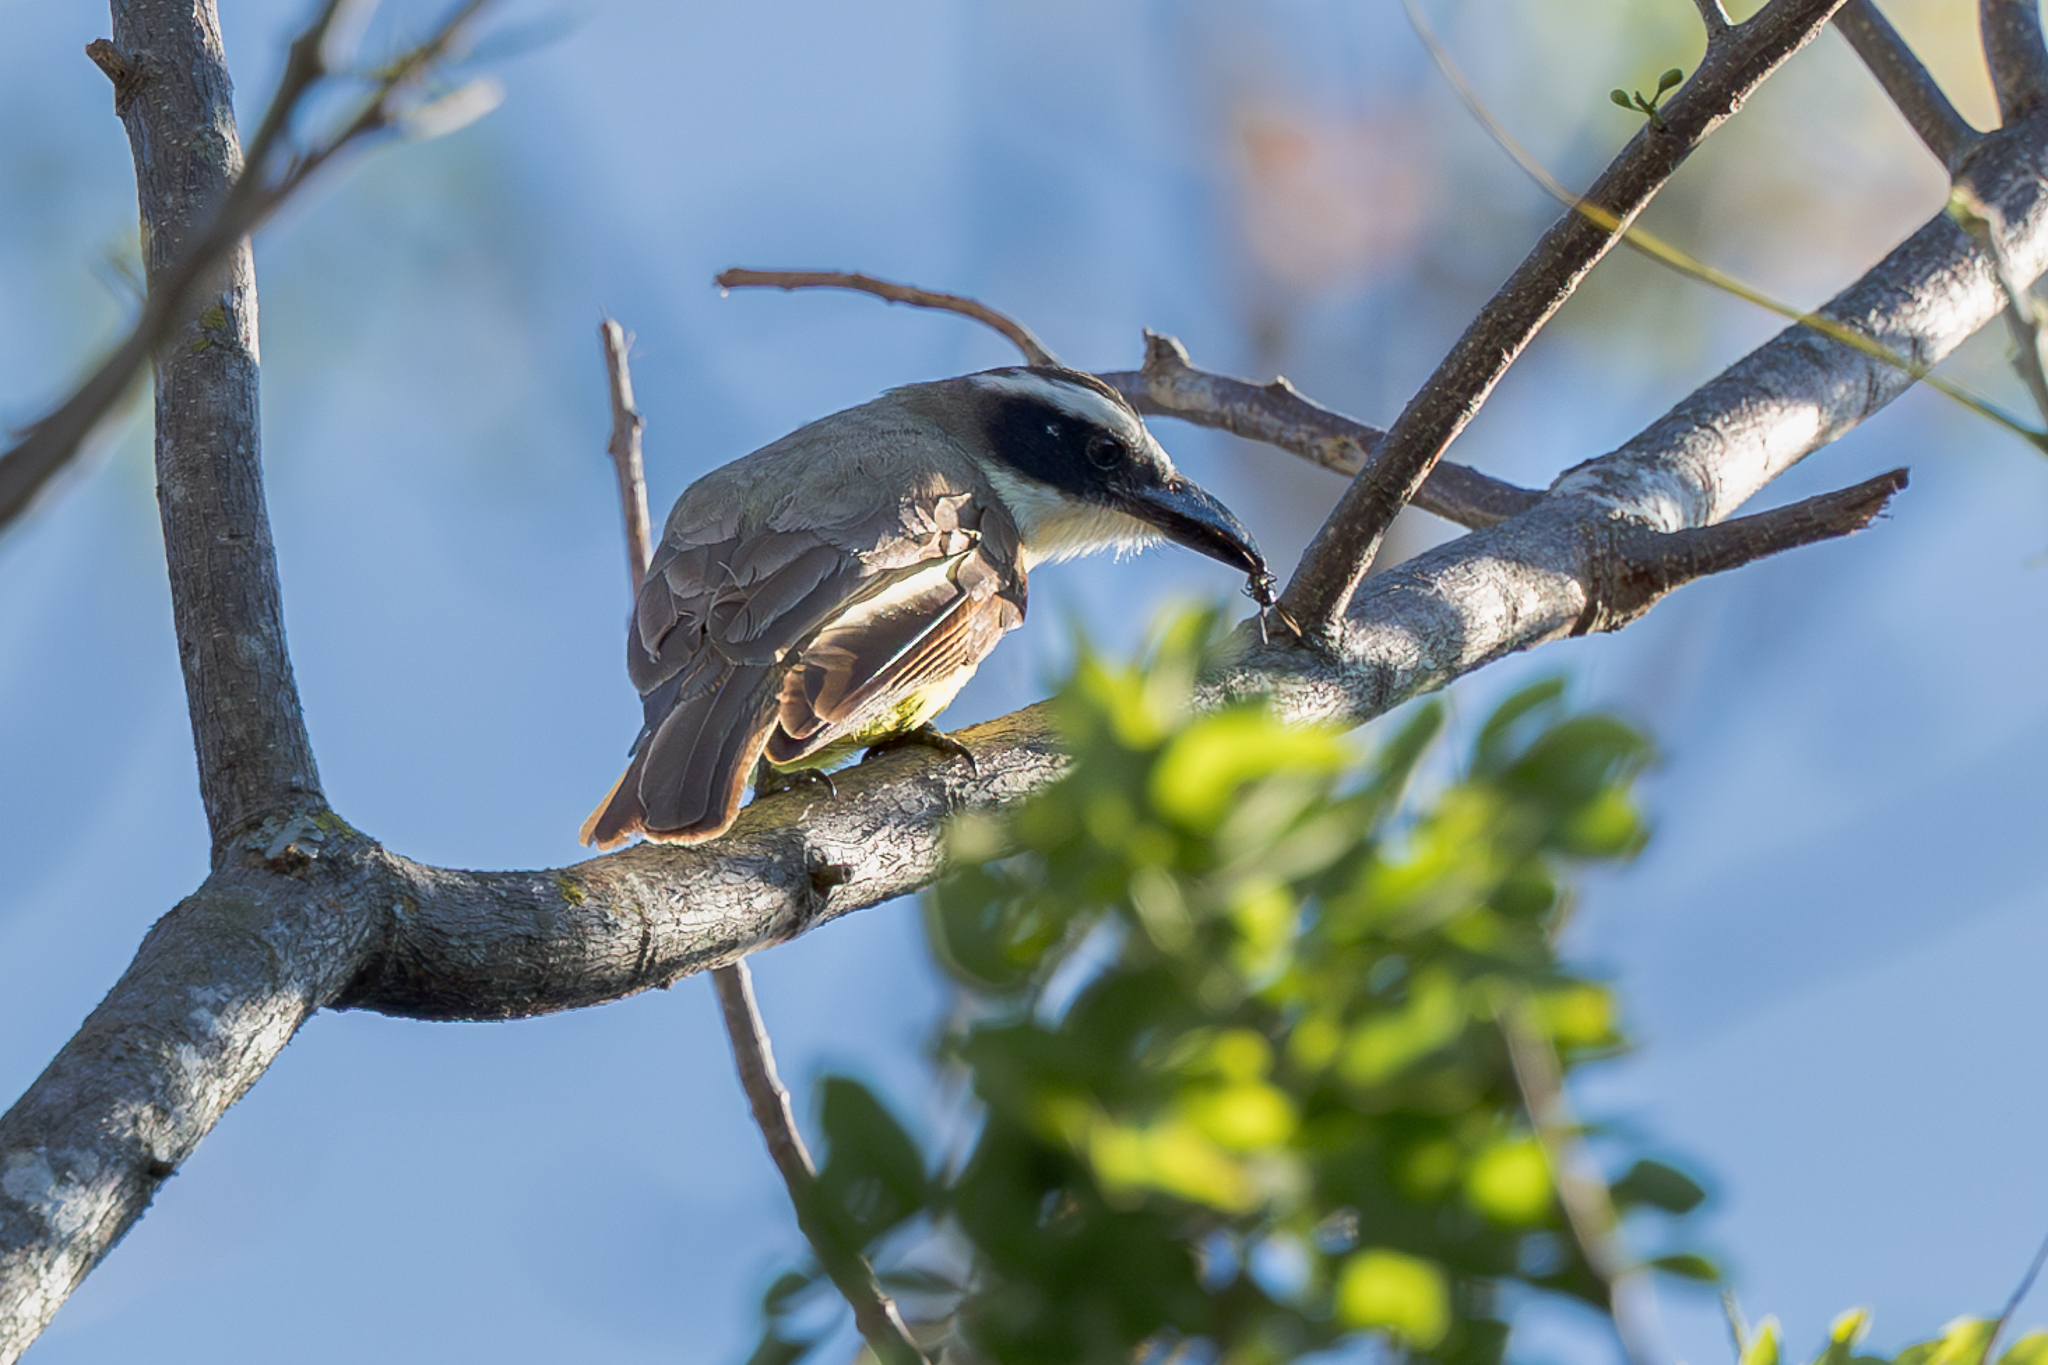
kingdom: Animalia
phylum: Chordata
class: Aves
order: Passeriformes
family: Tyrannidae
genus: Megarynchus
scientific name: Megarynchus pitangua
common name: Boat-billed flycatcher
